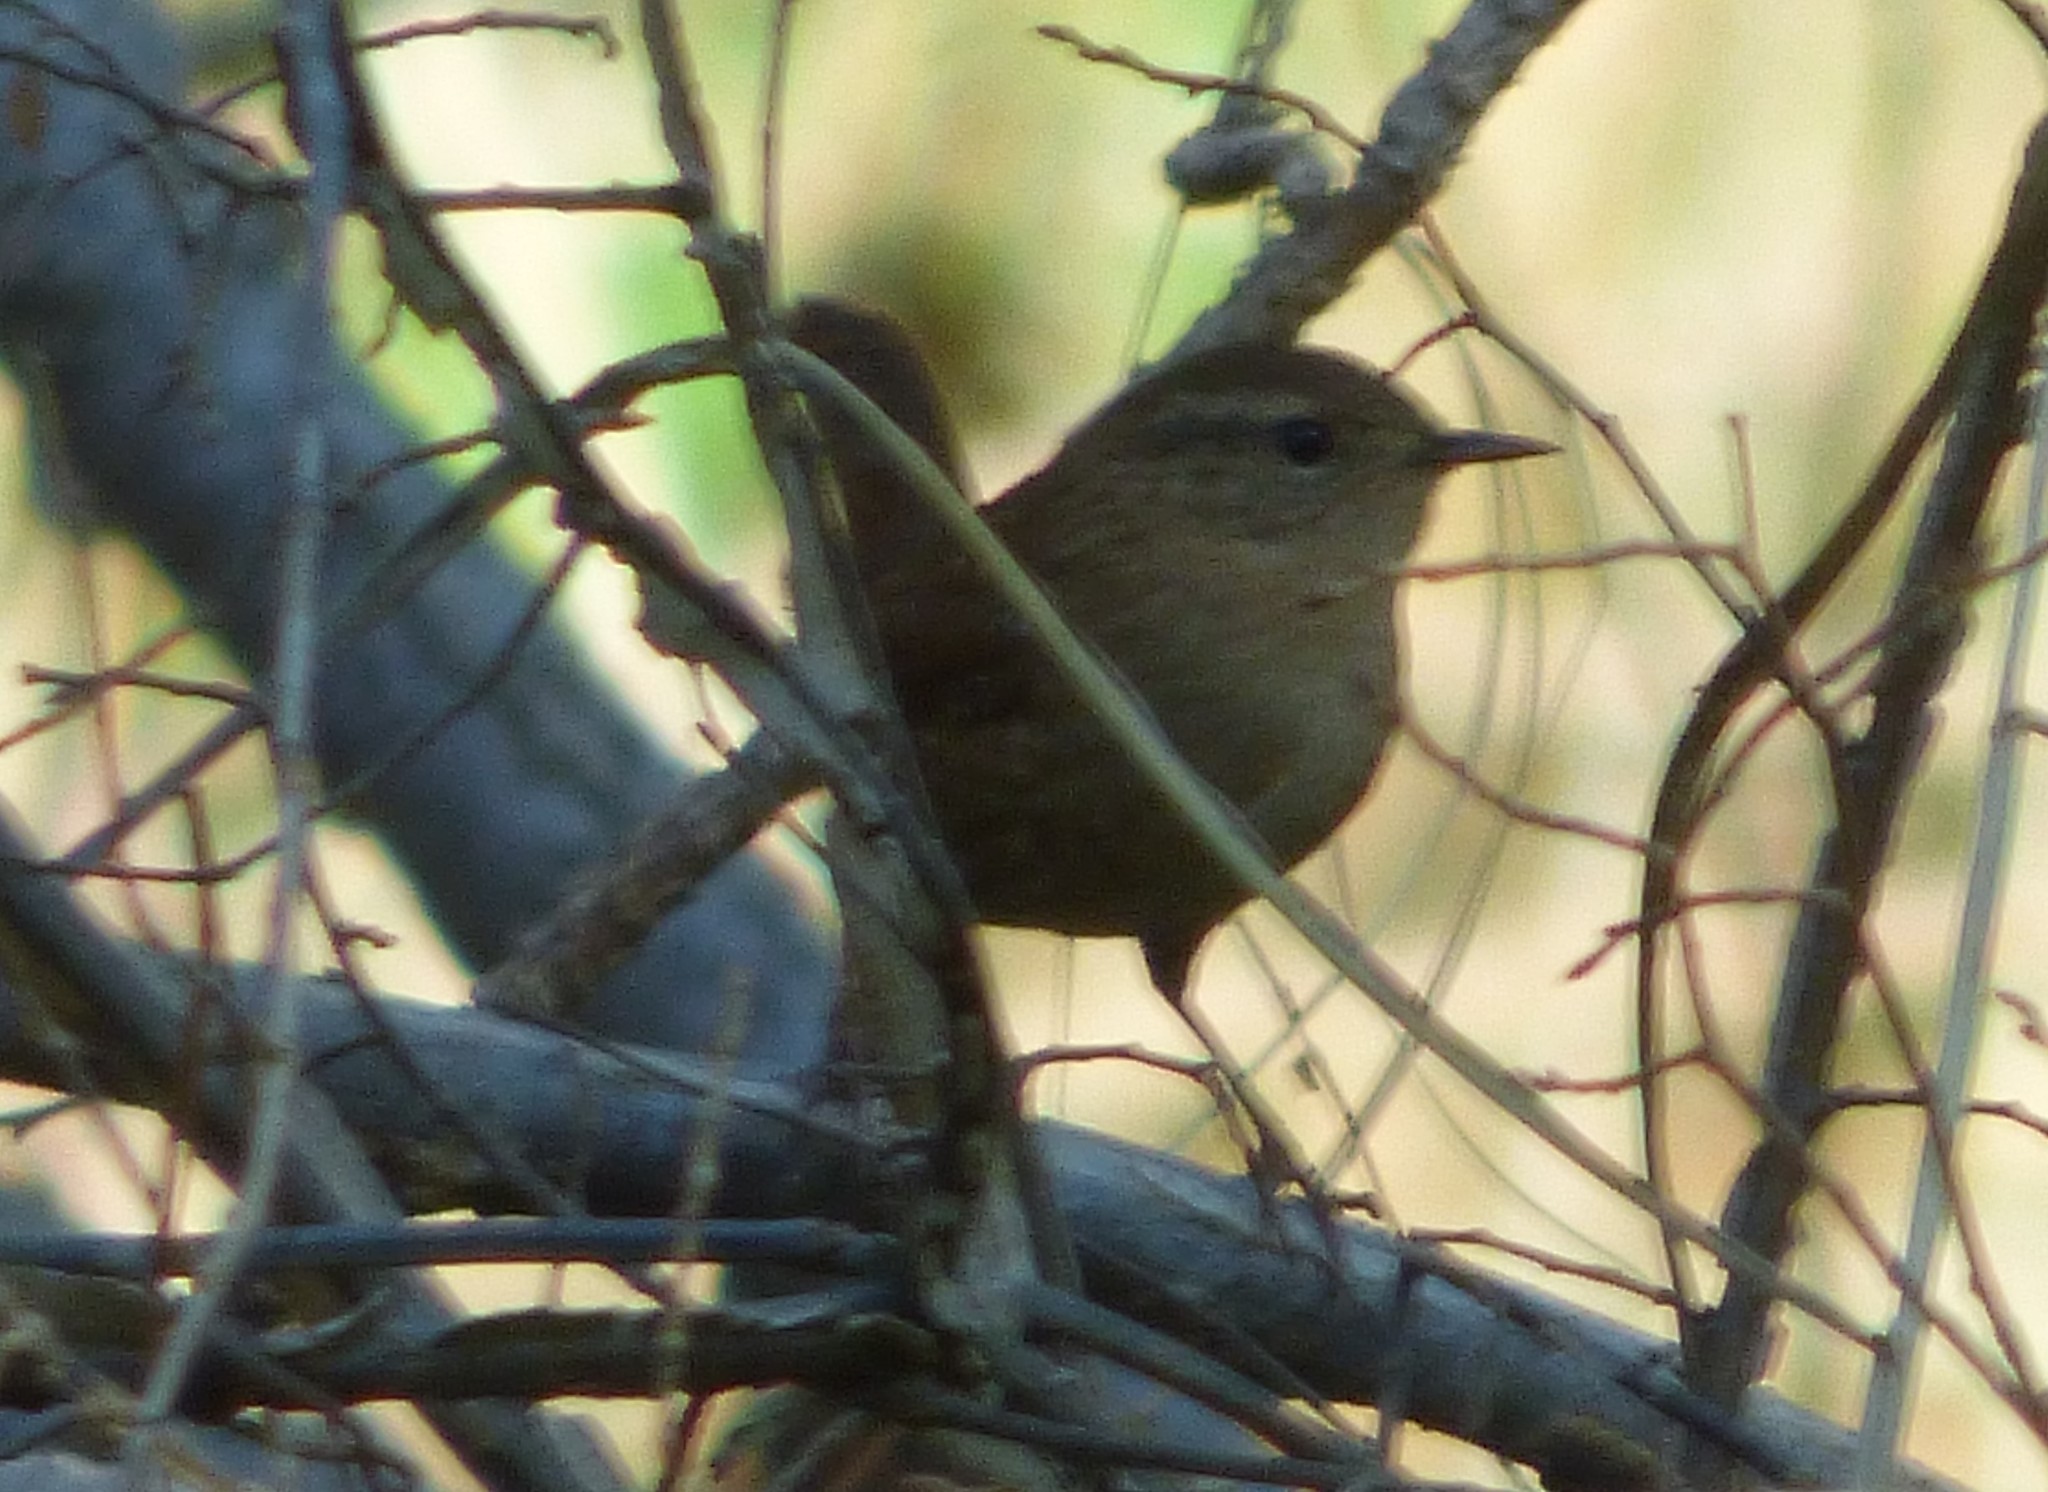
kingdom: Animalia
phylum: Chordata
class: Aves
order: Passeriformes
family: Troglodytidae
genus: Troglodytes
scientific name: Troglodytes hiemalis
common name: Winter wren
